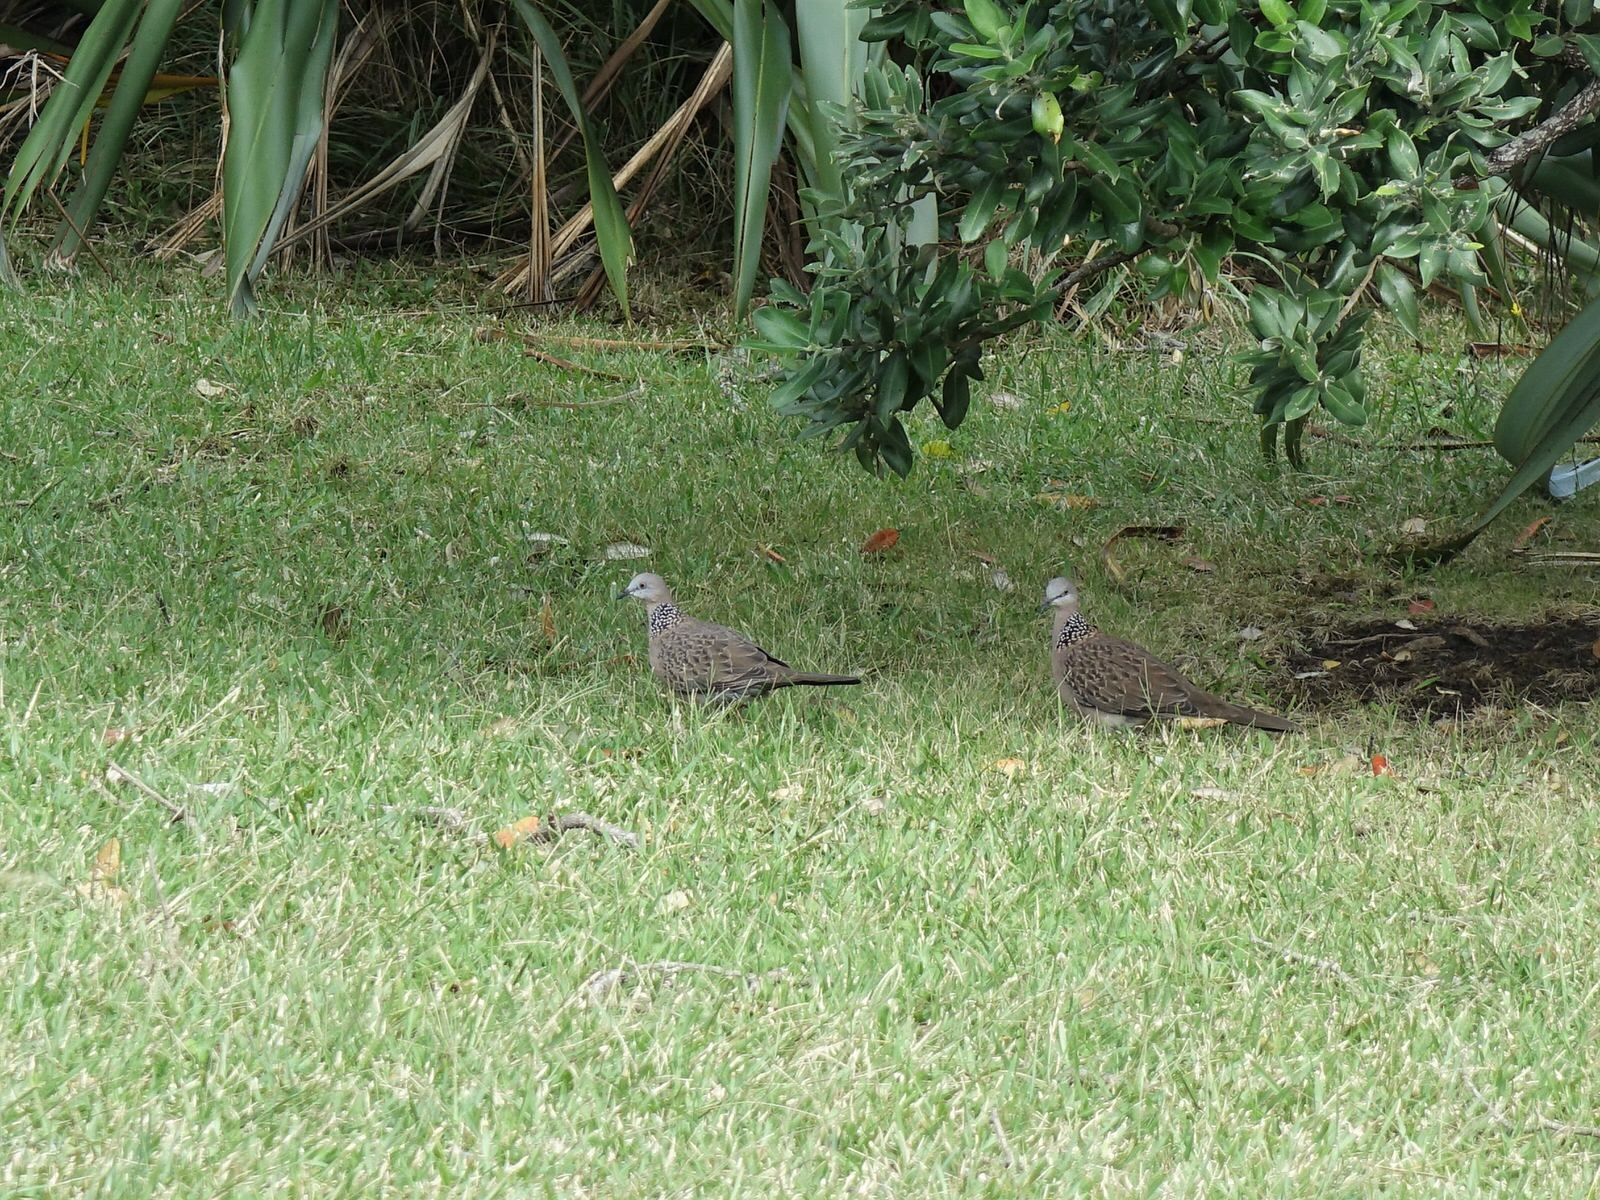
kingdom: Animalia
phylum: Chordata
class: Aves
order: Columbiformes
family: Columbidae
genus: Spilopelia
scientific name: Spilopelia chinensis
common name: Spotted dove
